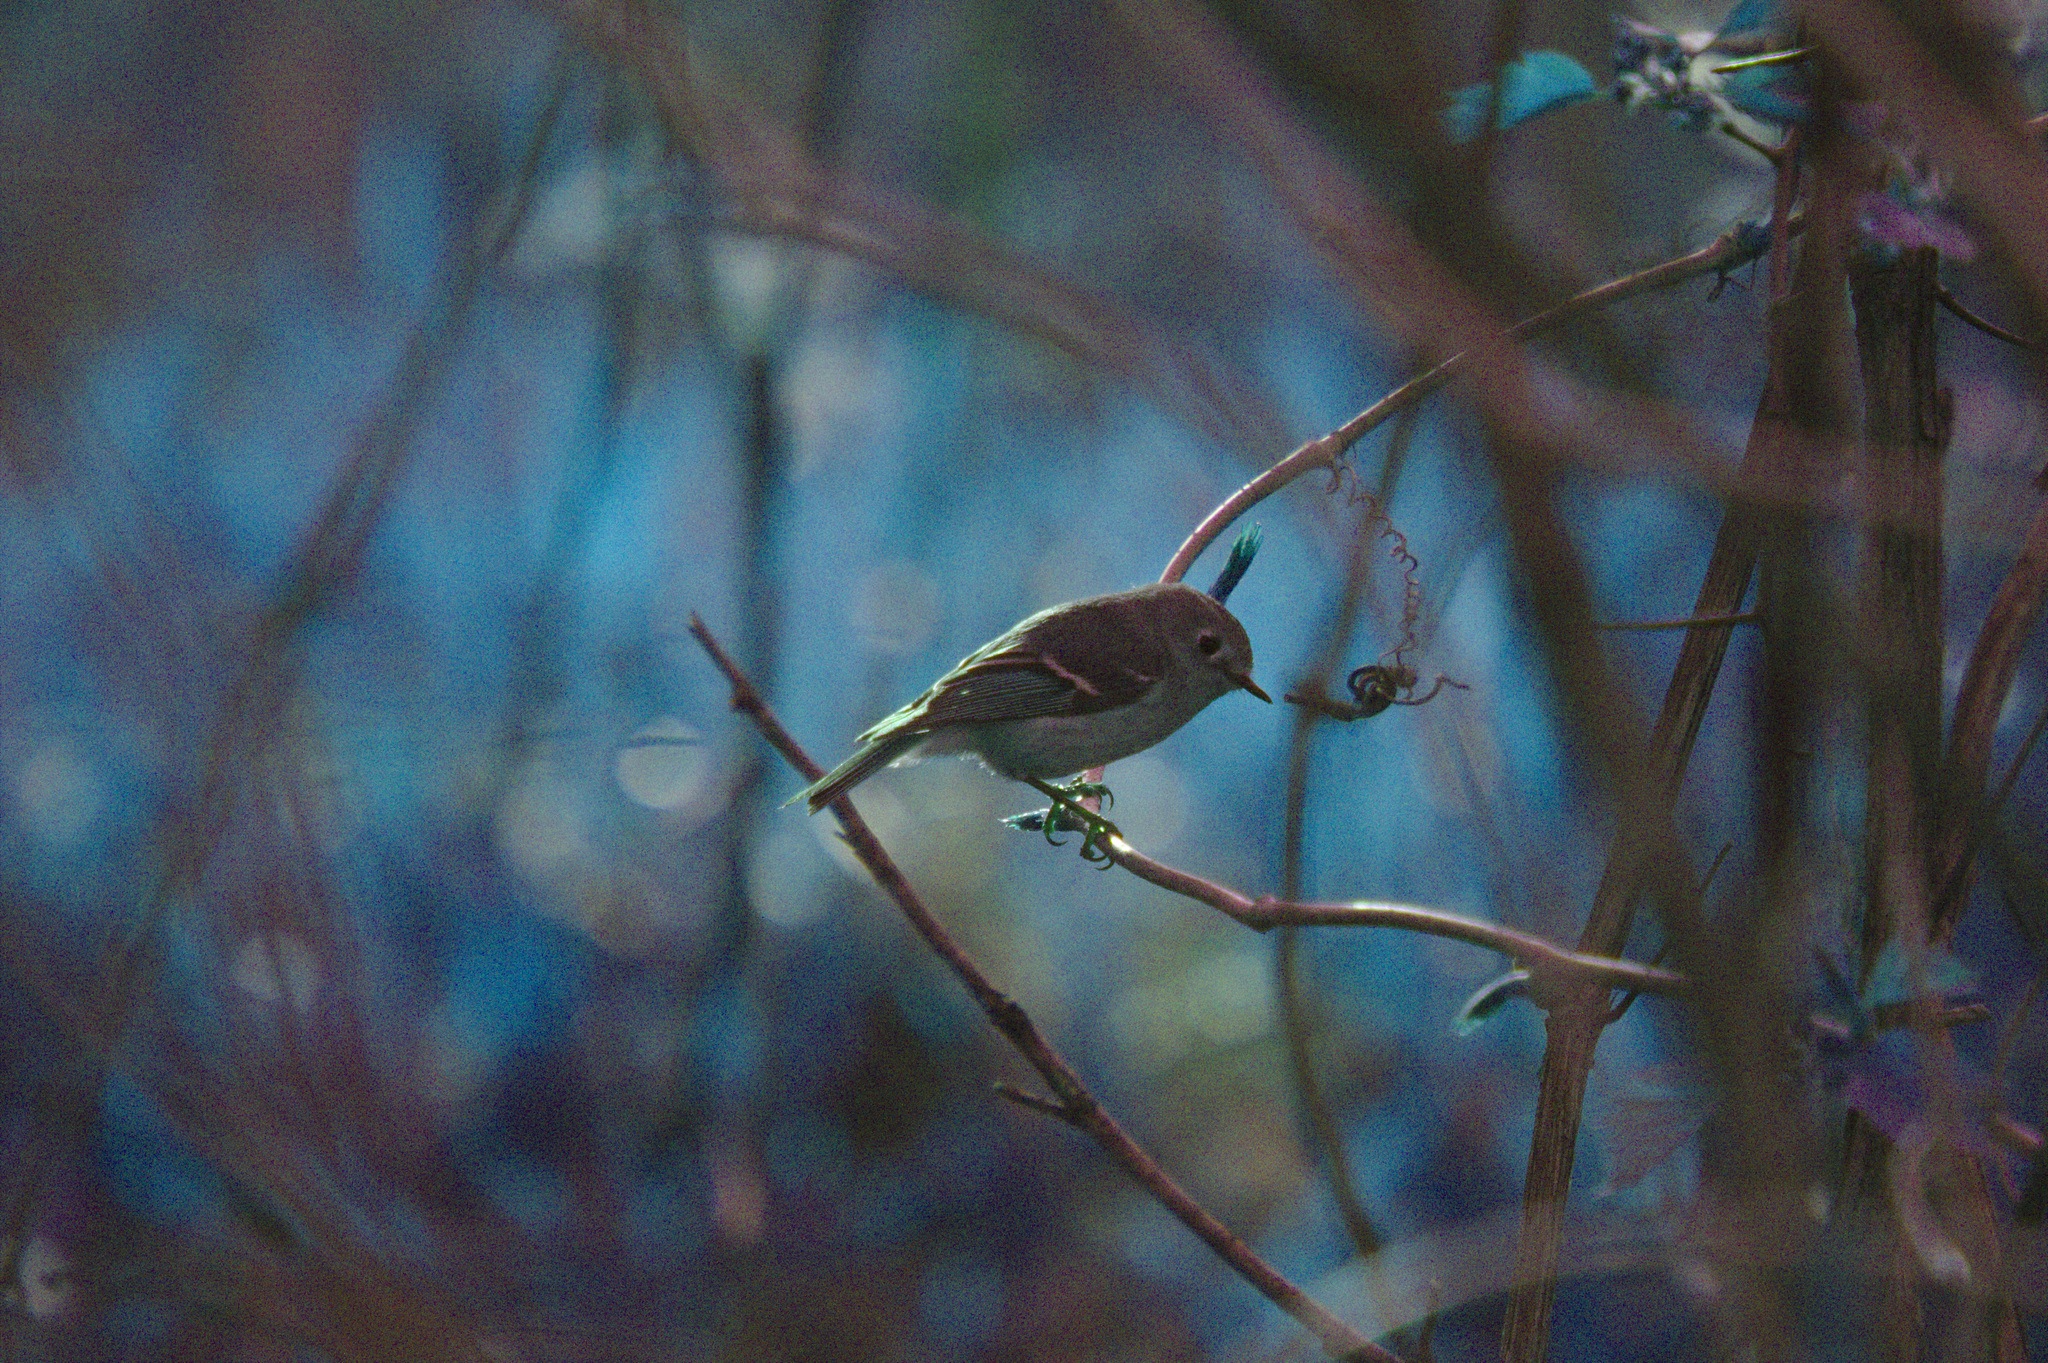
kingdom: Animalia
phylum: Chordata
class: Aves
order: Passeriformes
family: Regulidae
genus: Regulus
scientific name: Regulus calendula
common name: Ruby-crowned kinglet
